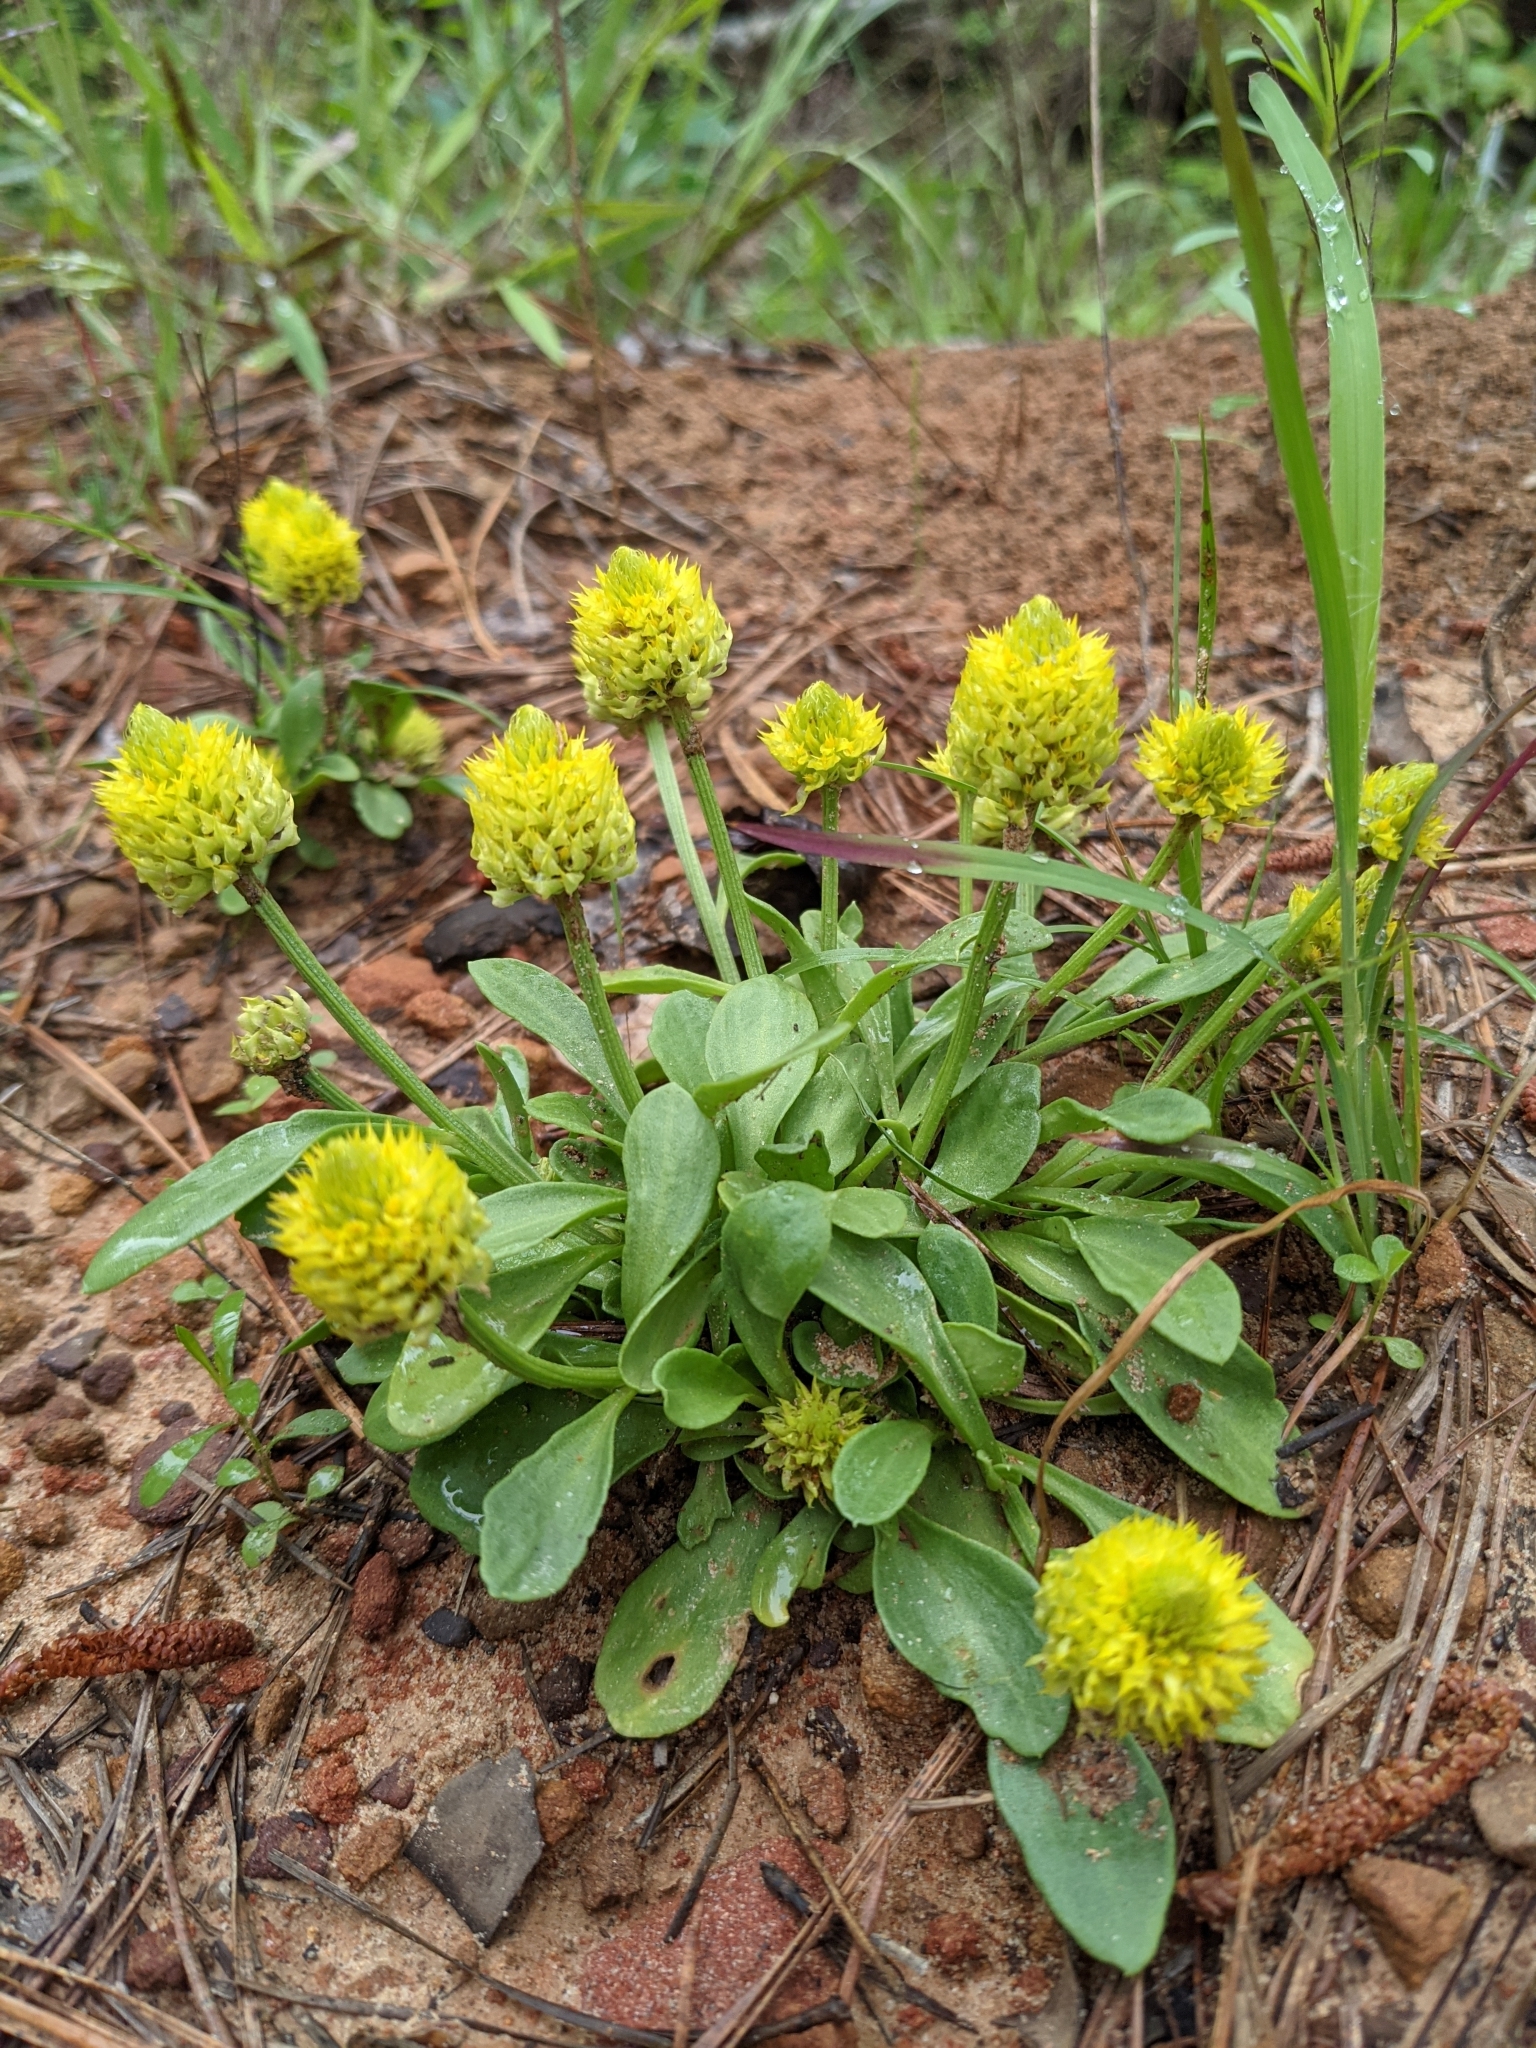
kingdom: Plantae
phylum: Tracheophyta
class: Magnoliopsida
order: Fabales
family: Polygalaceae
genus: Polygala
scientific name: Polygala nana
